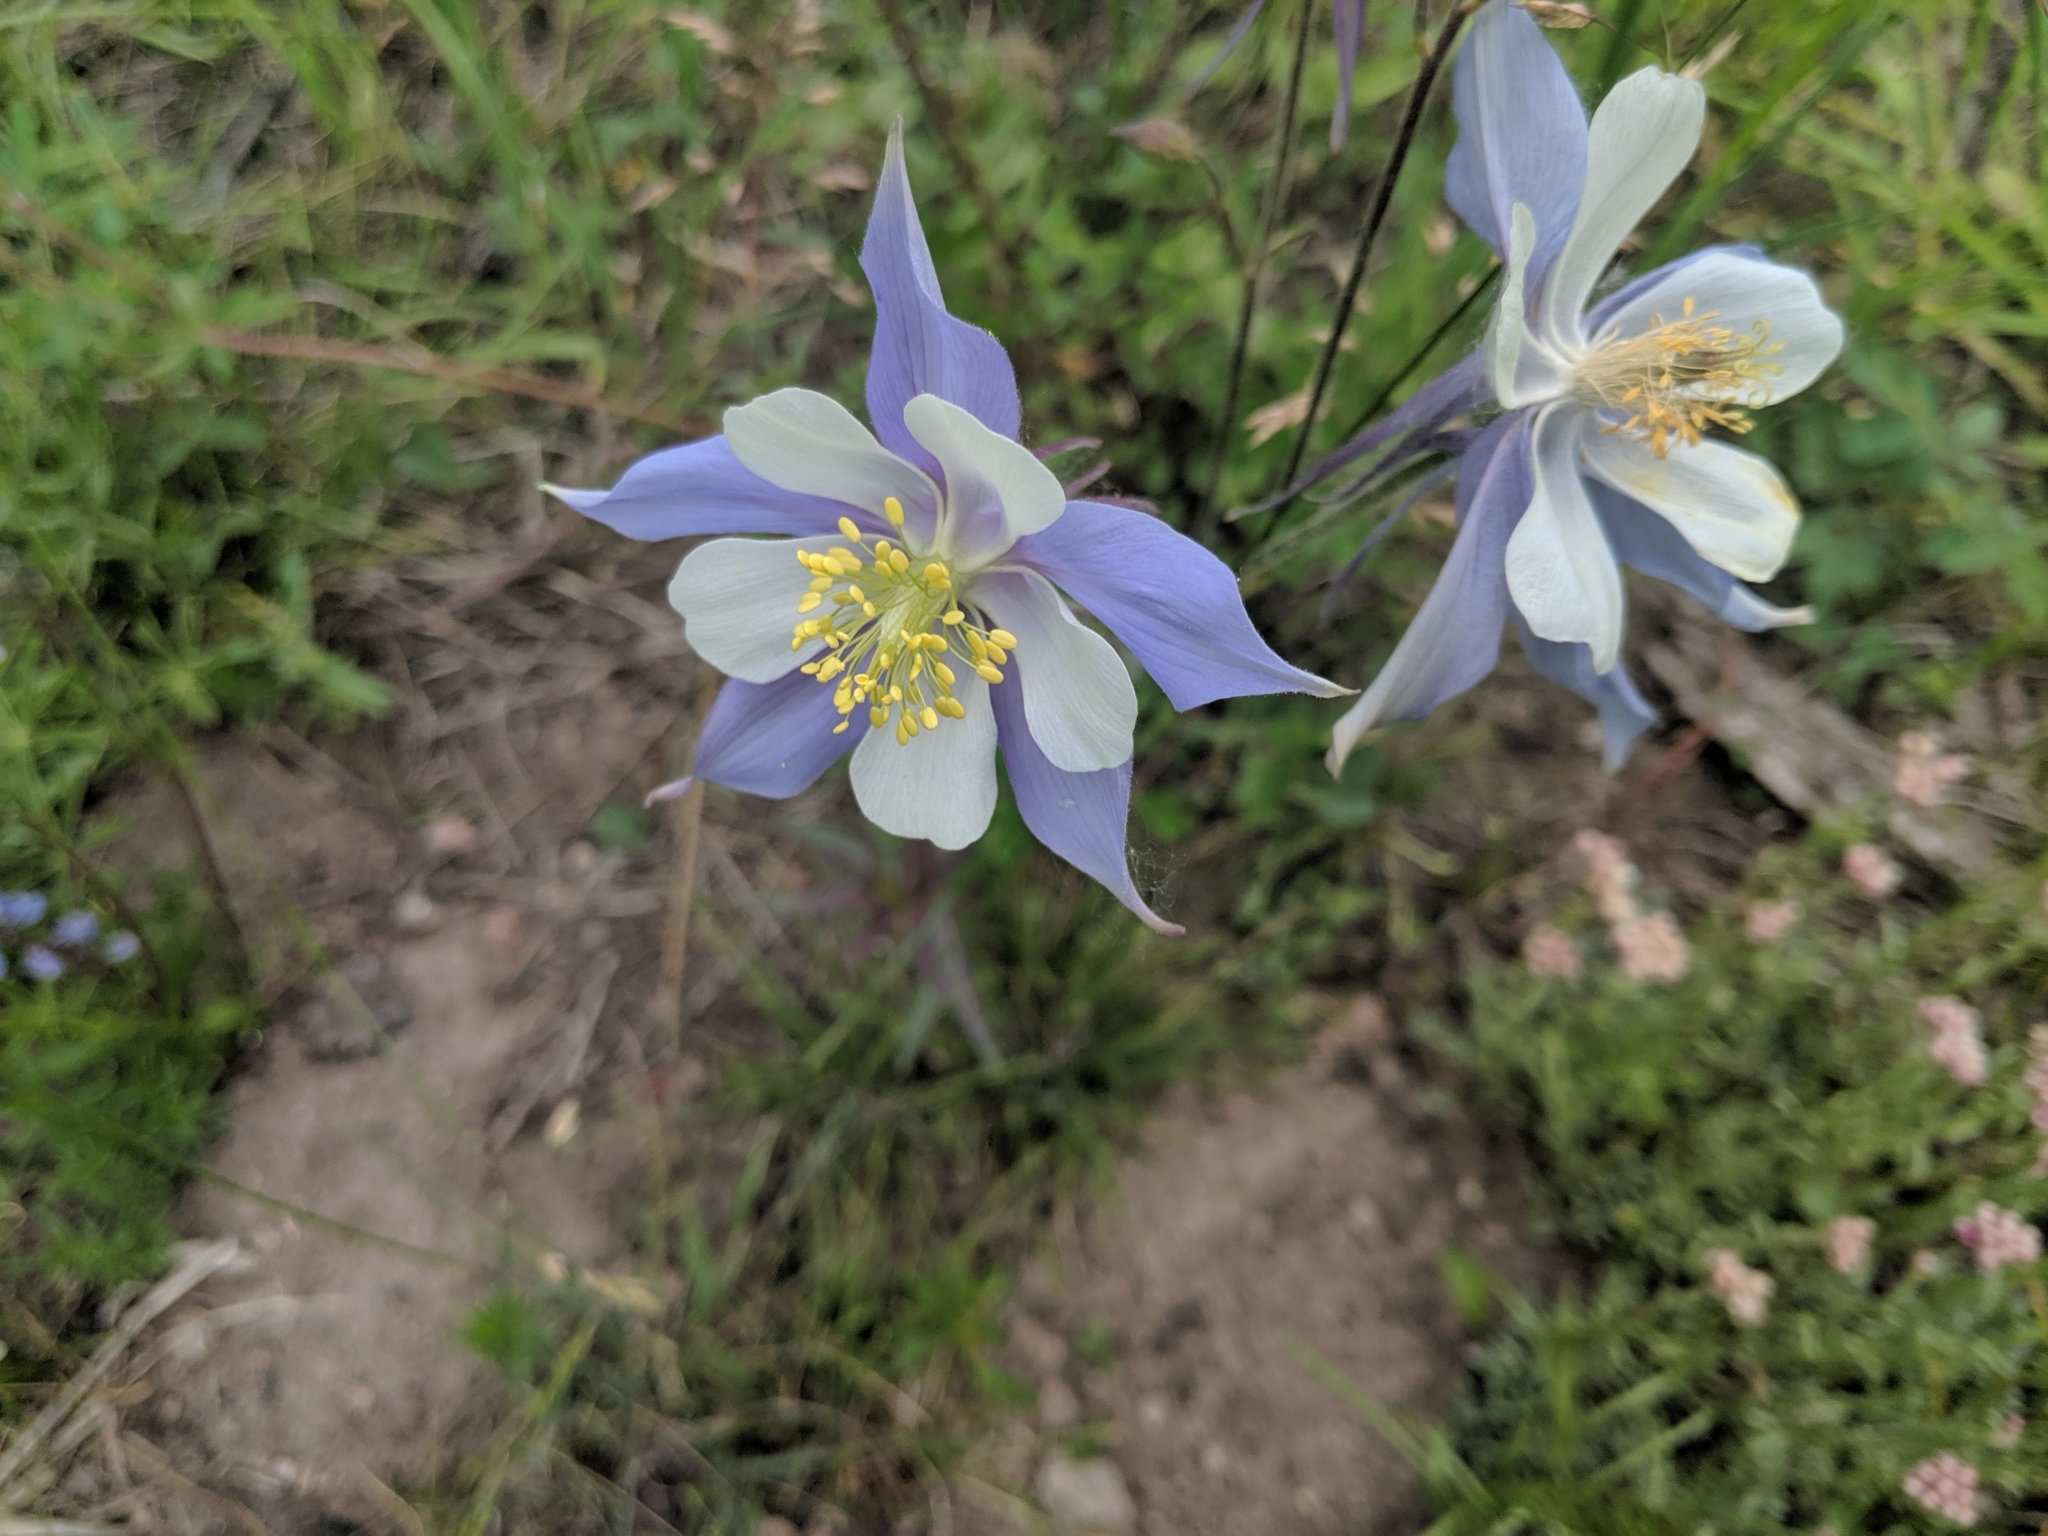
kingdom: Plantae
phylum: Tracheophyta
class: Magnoliopsida
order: Ranunculales
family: Ranunculaceae
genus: Aquilegia
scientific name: Aquilegia coerulea
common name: Rocky mountain columbine
